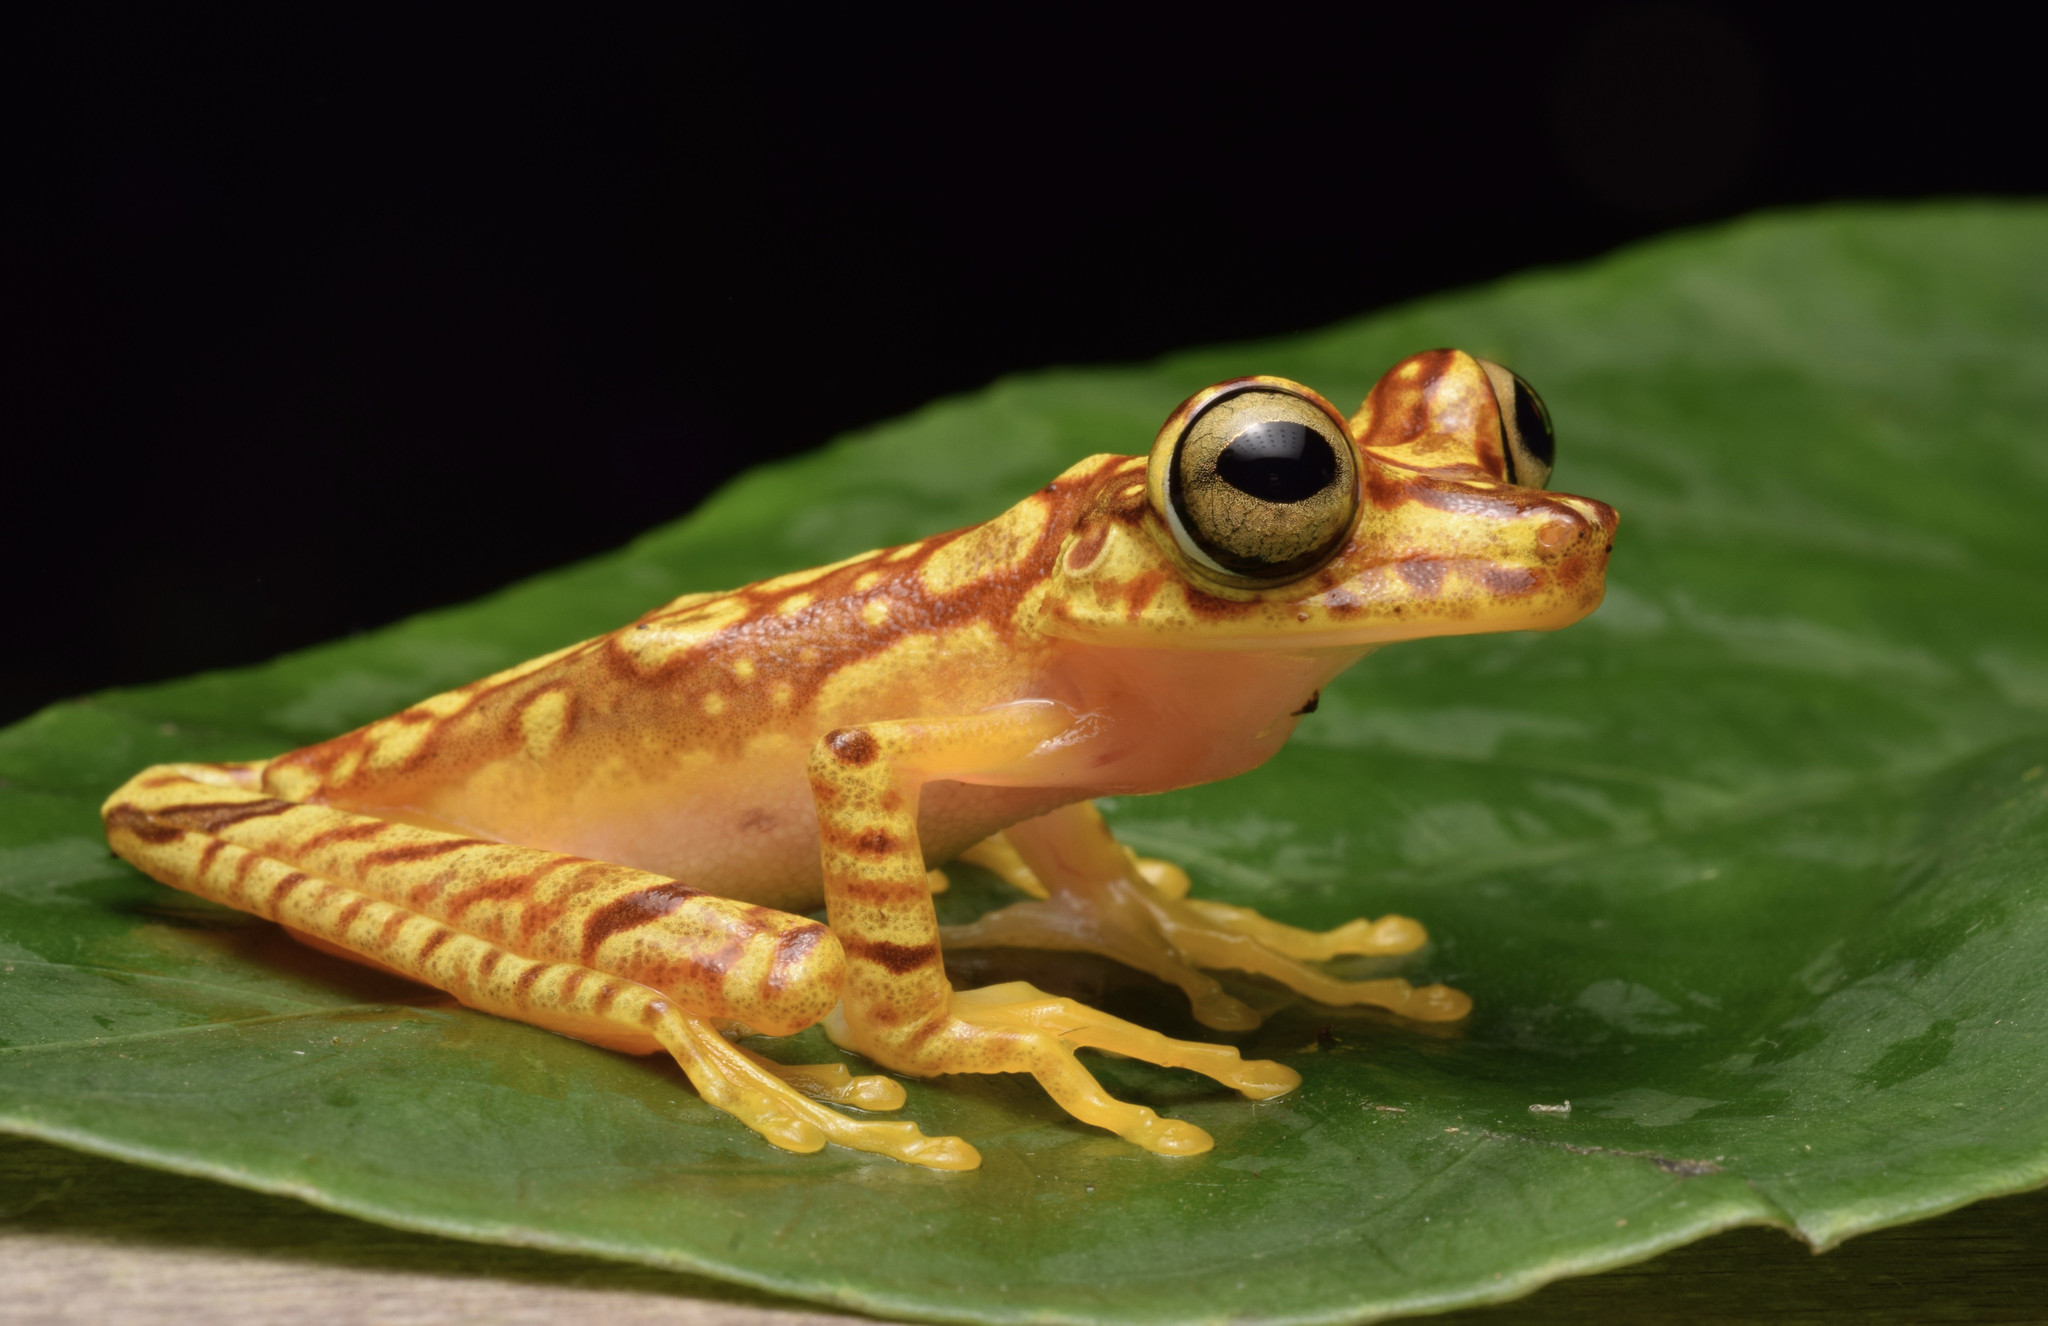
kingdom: Animalia
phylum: Chordata
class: Amphibia
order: Anura
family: Hylidae
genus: Boana
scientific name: Boana picturata
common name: Imbabura treefrog
